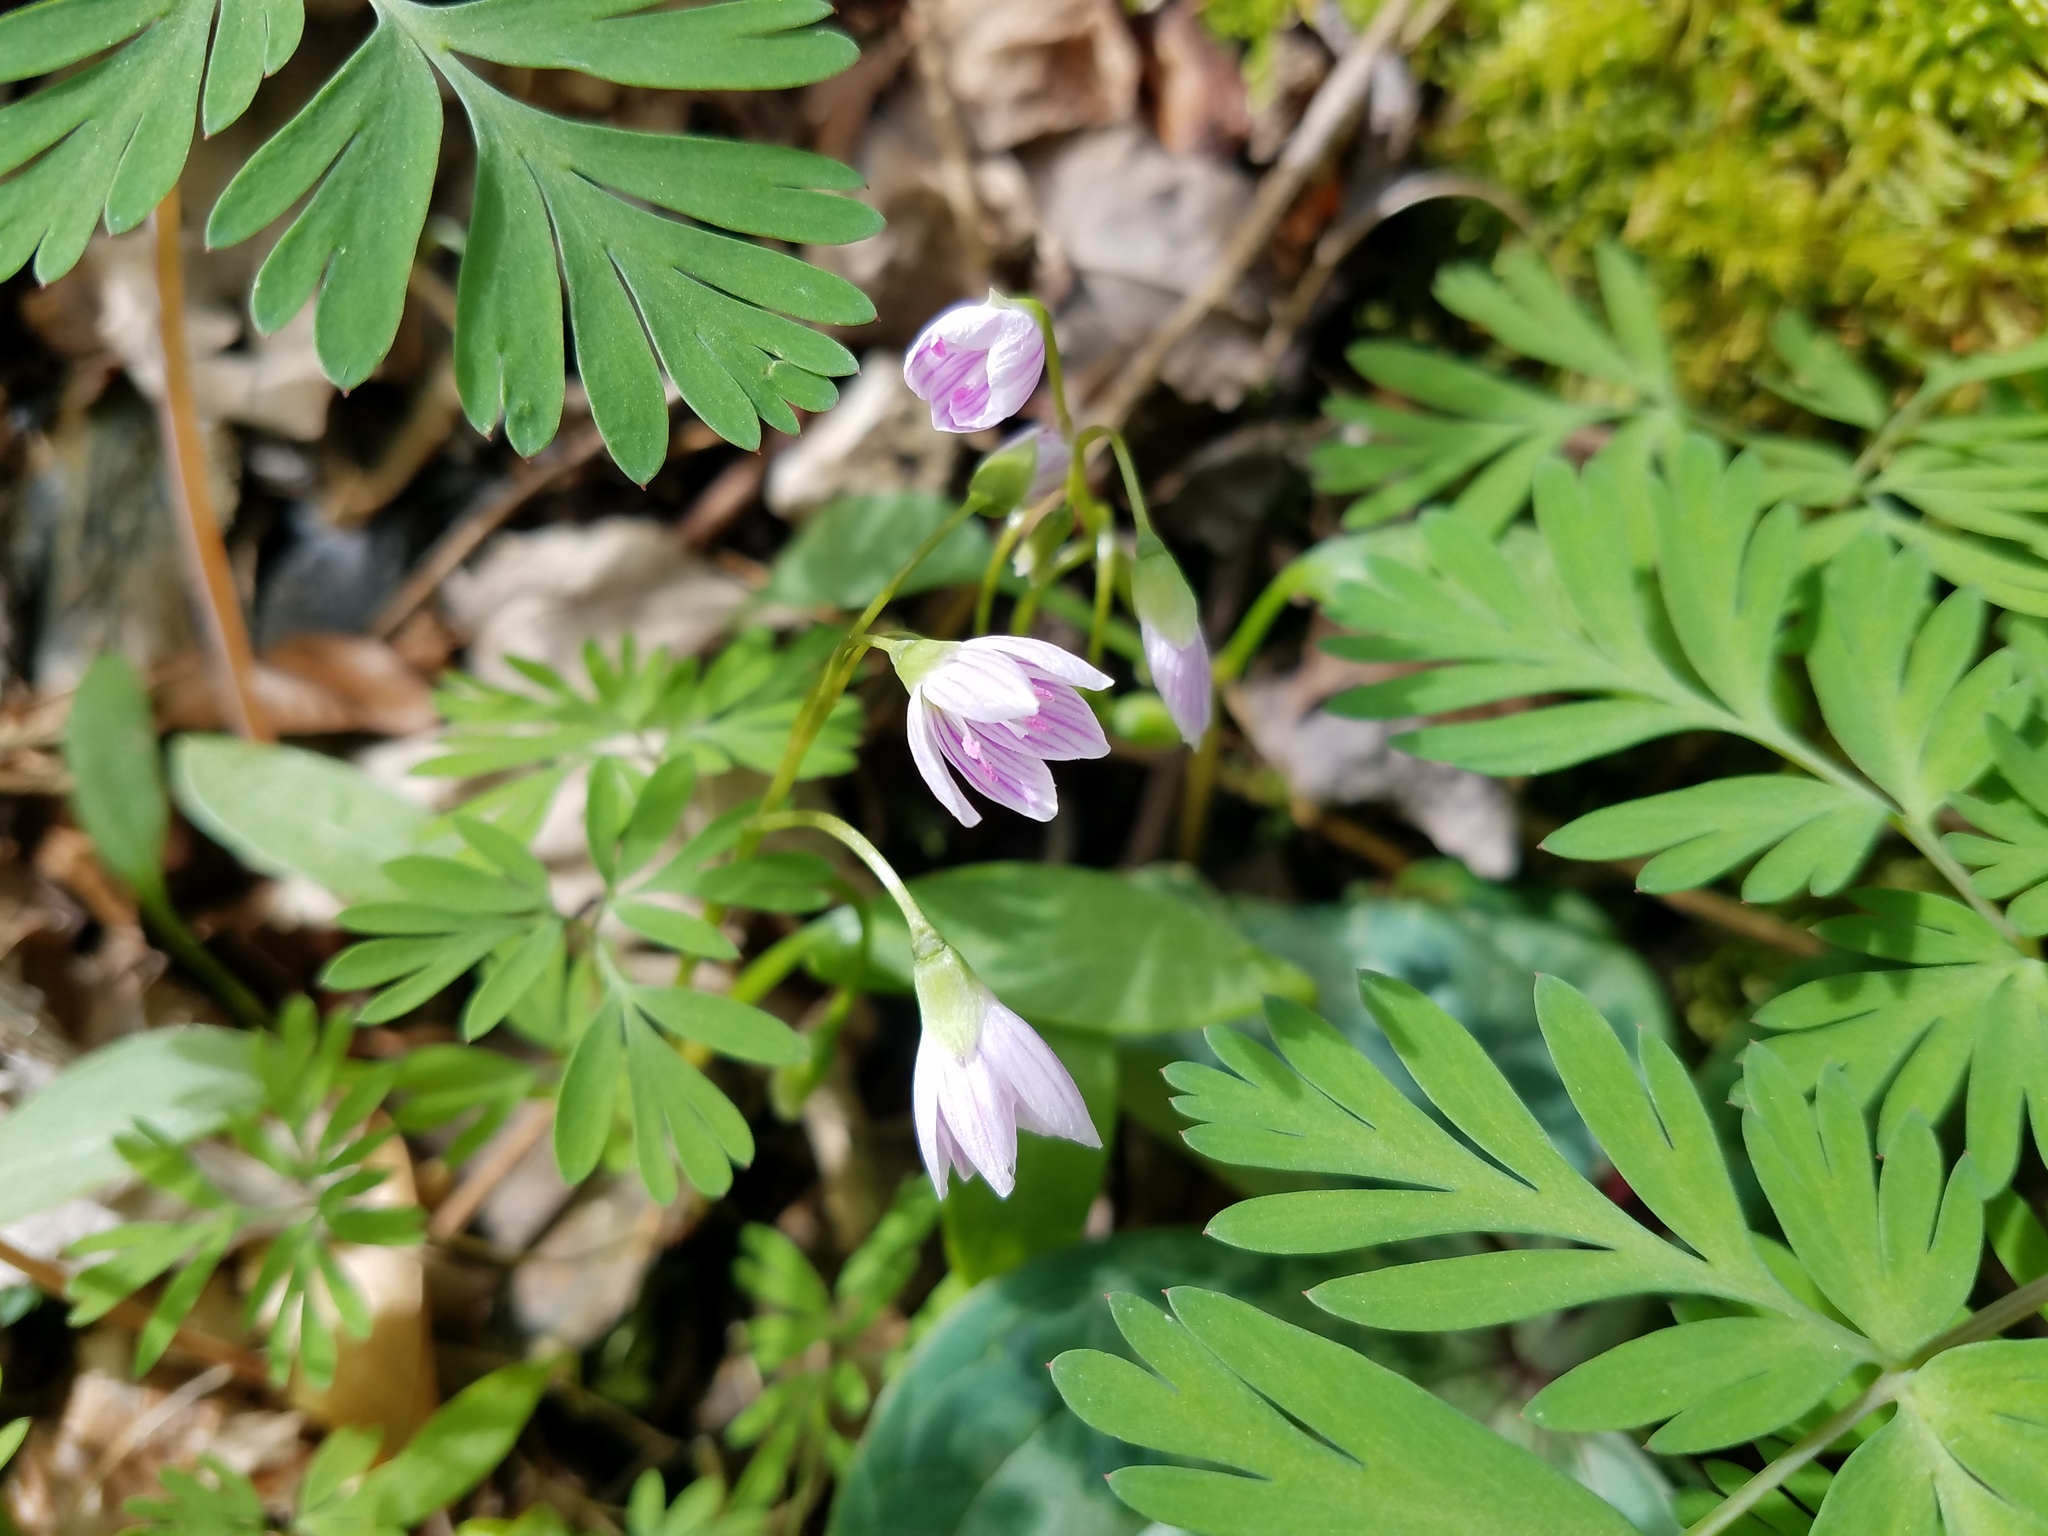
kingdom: Plantae
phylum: Tracheophyta
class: Magnoliopsida
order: Caryophyllales
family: Montiaceae
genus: Claytonia
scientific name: Claytonia caroliniana
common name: Carolina spring beauty
